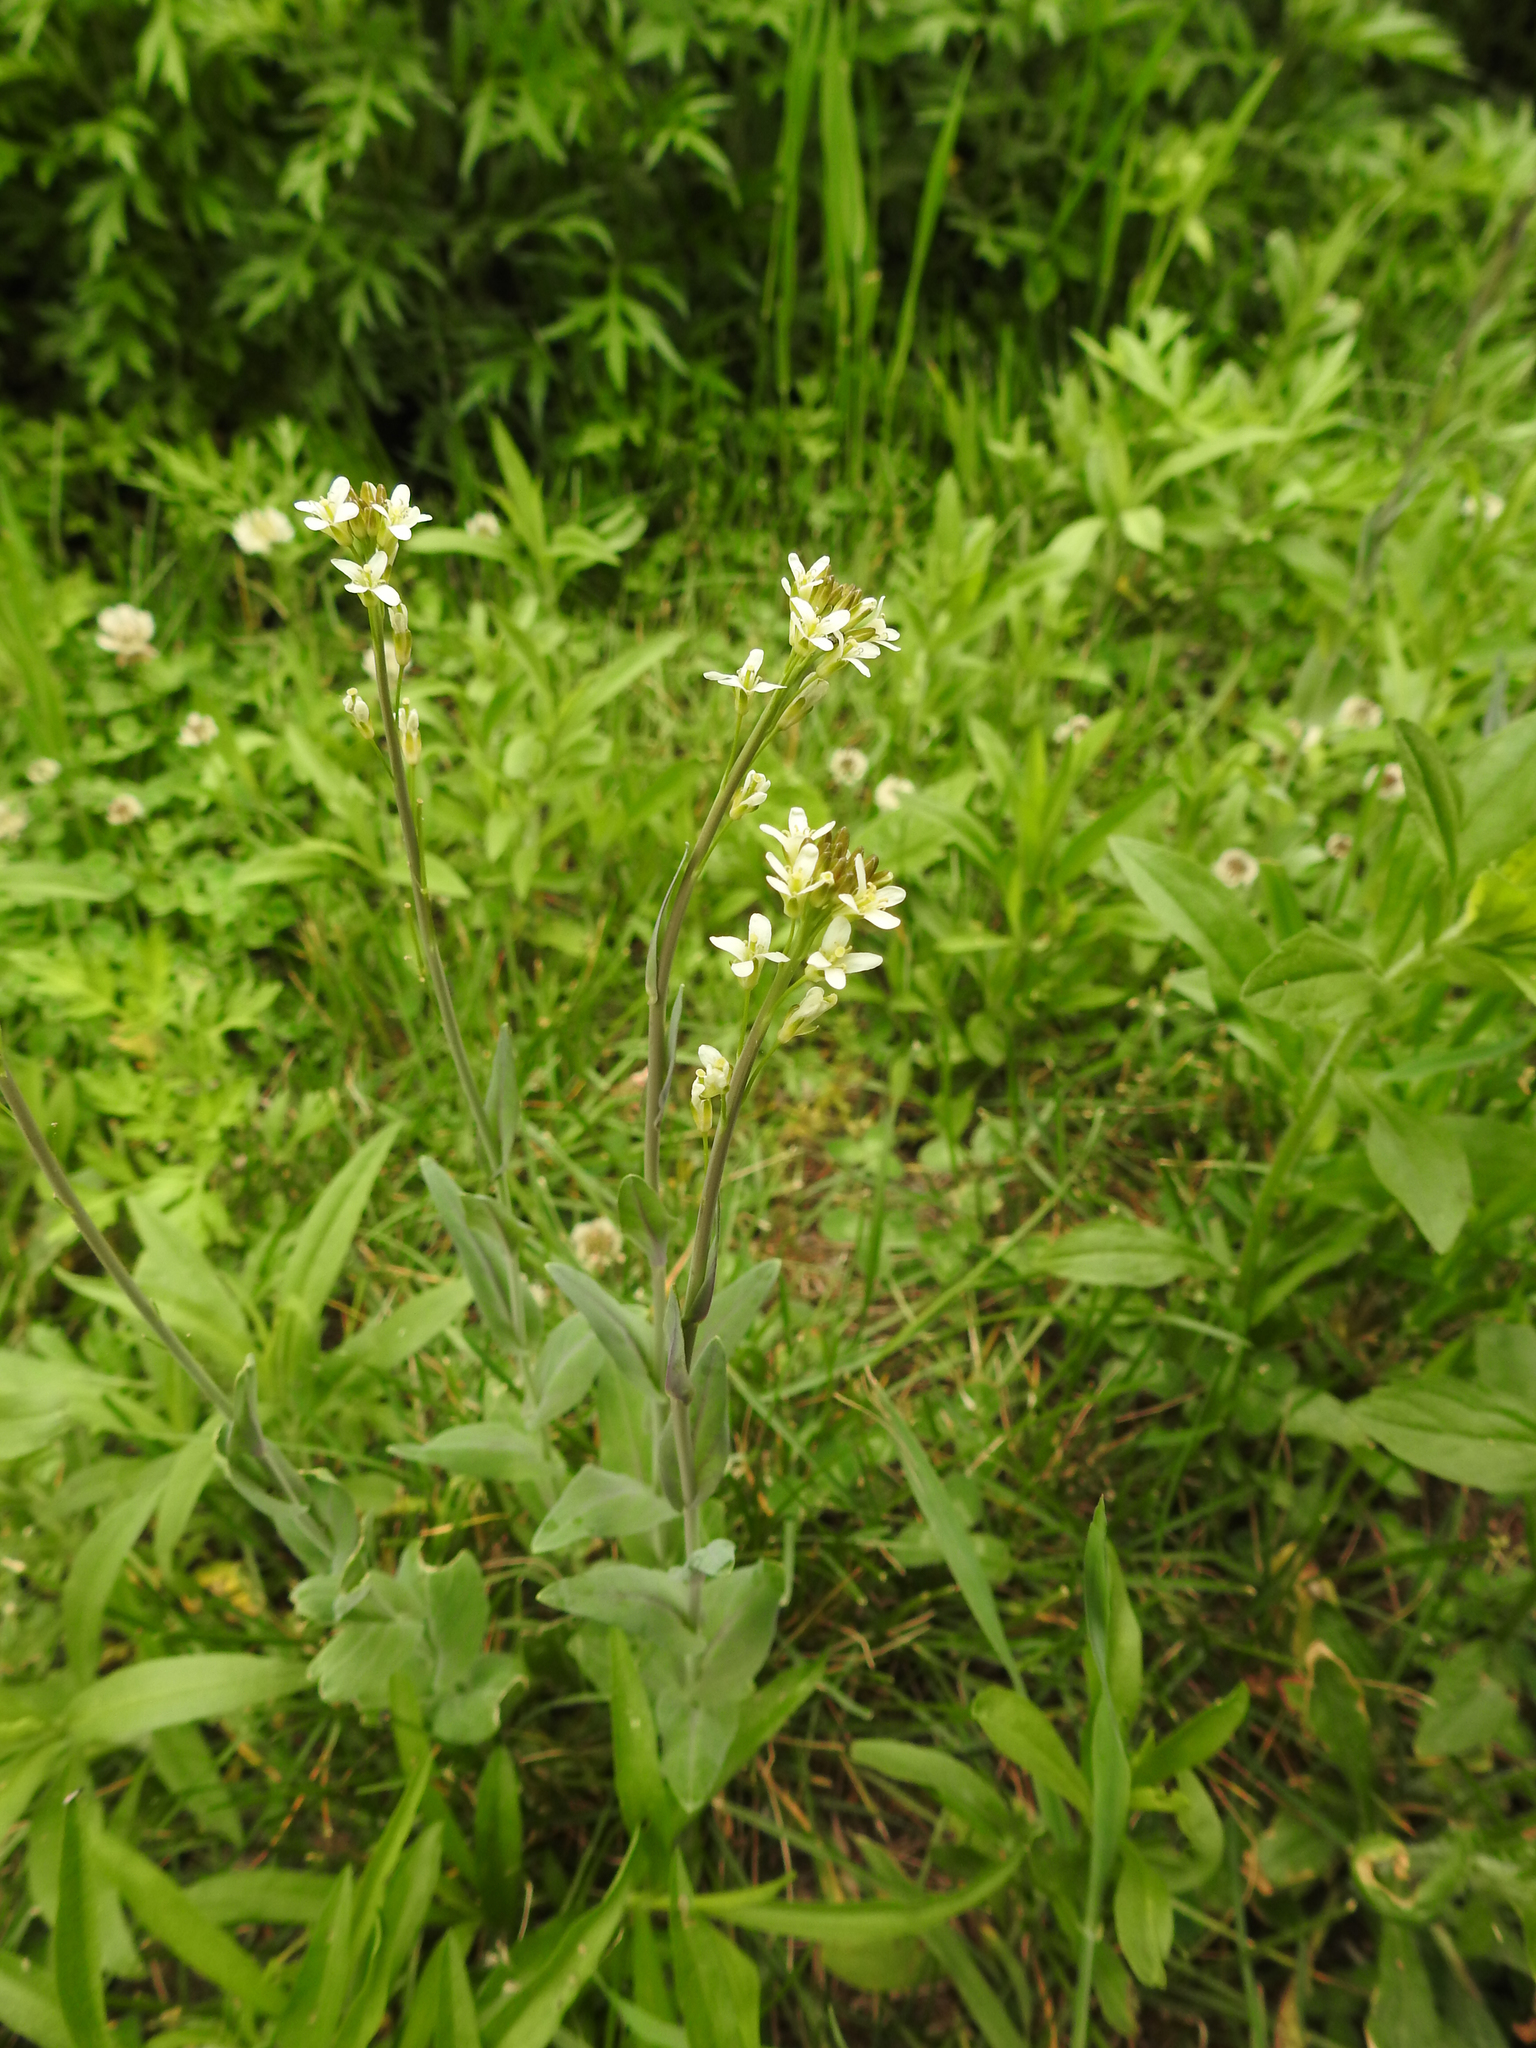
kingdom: Plantae
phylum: Tracheophyta
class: Magnoliopsida
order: Brassicales
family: Brassicaceae
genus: Turritis
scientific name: Turritis glabra
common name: Tower rockcress
